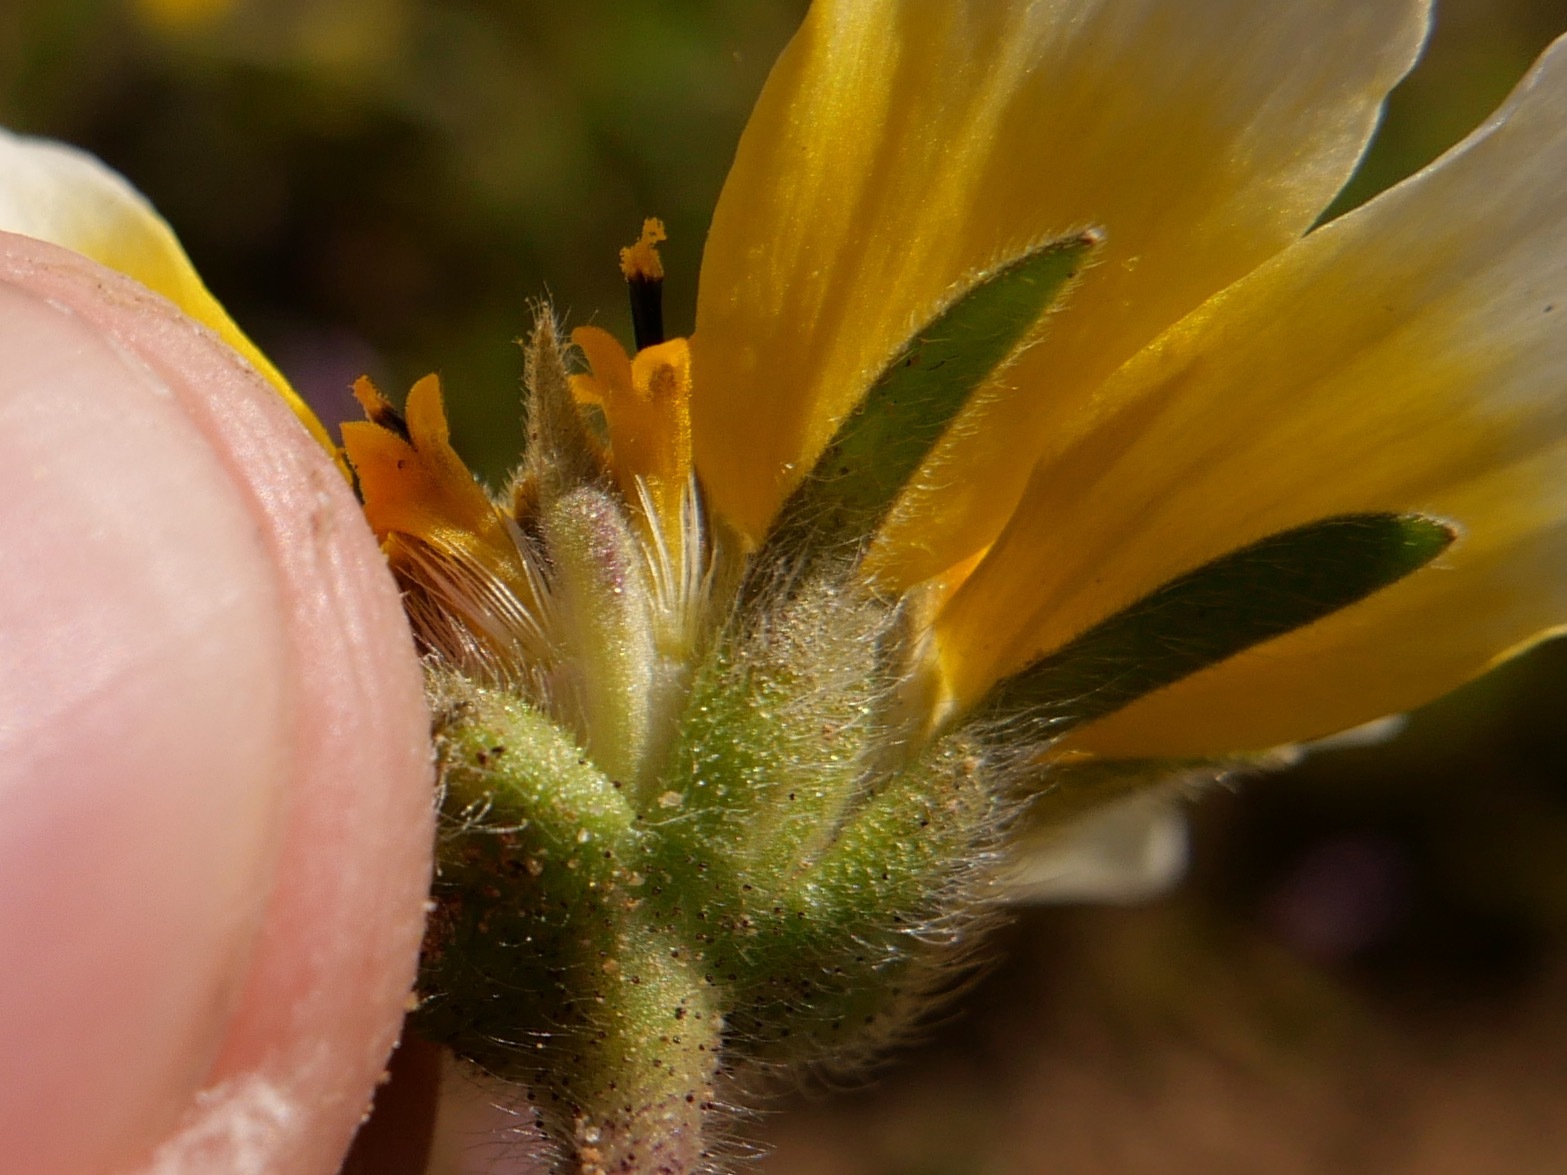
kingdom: Plantae
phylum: Tracheophyta
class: Magnoliopsida
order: Asterales
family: Asteraceae
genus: Layia
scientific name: Layia platyglossa
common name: Tidy-tips
